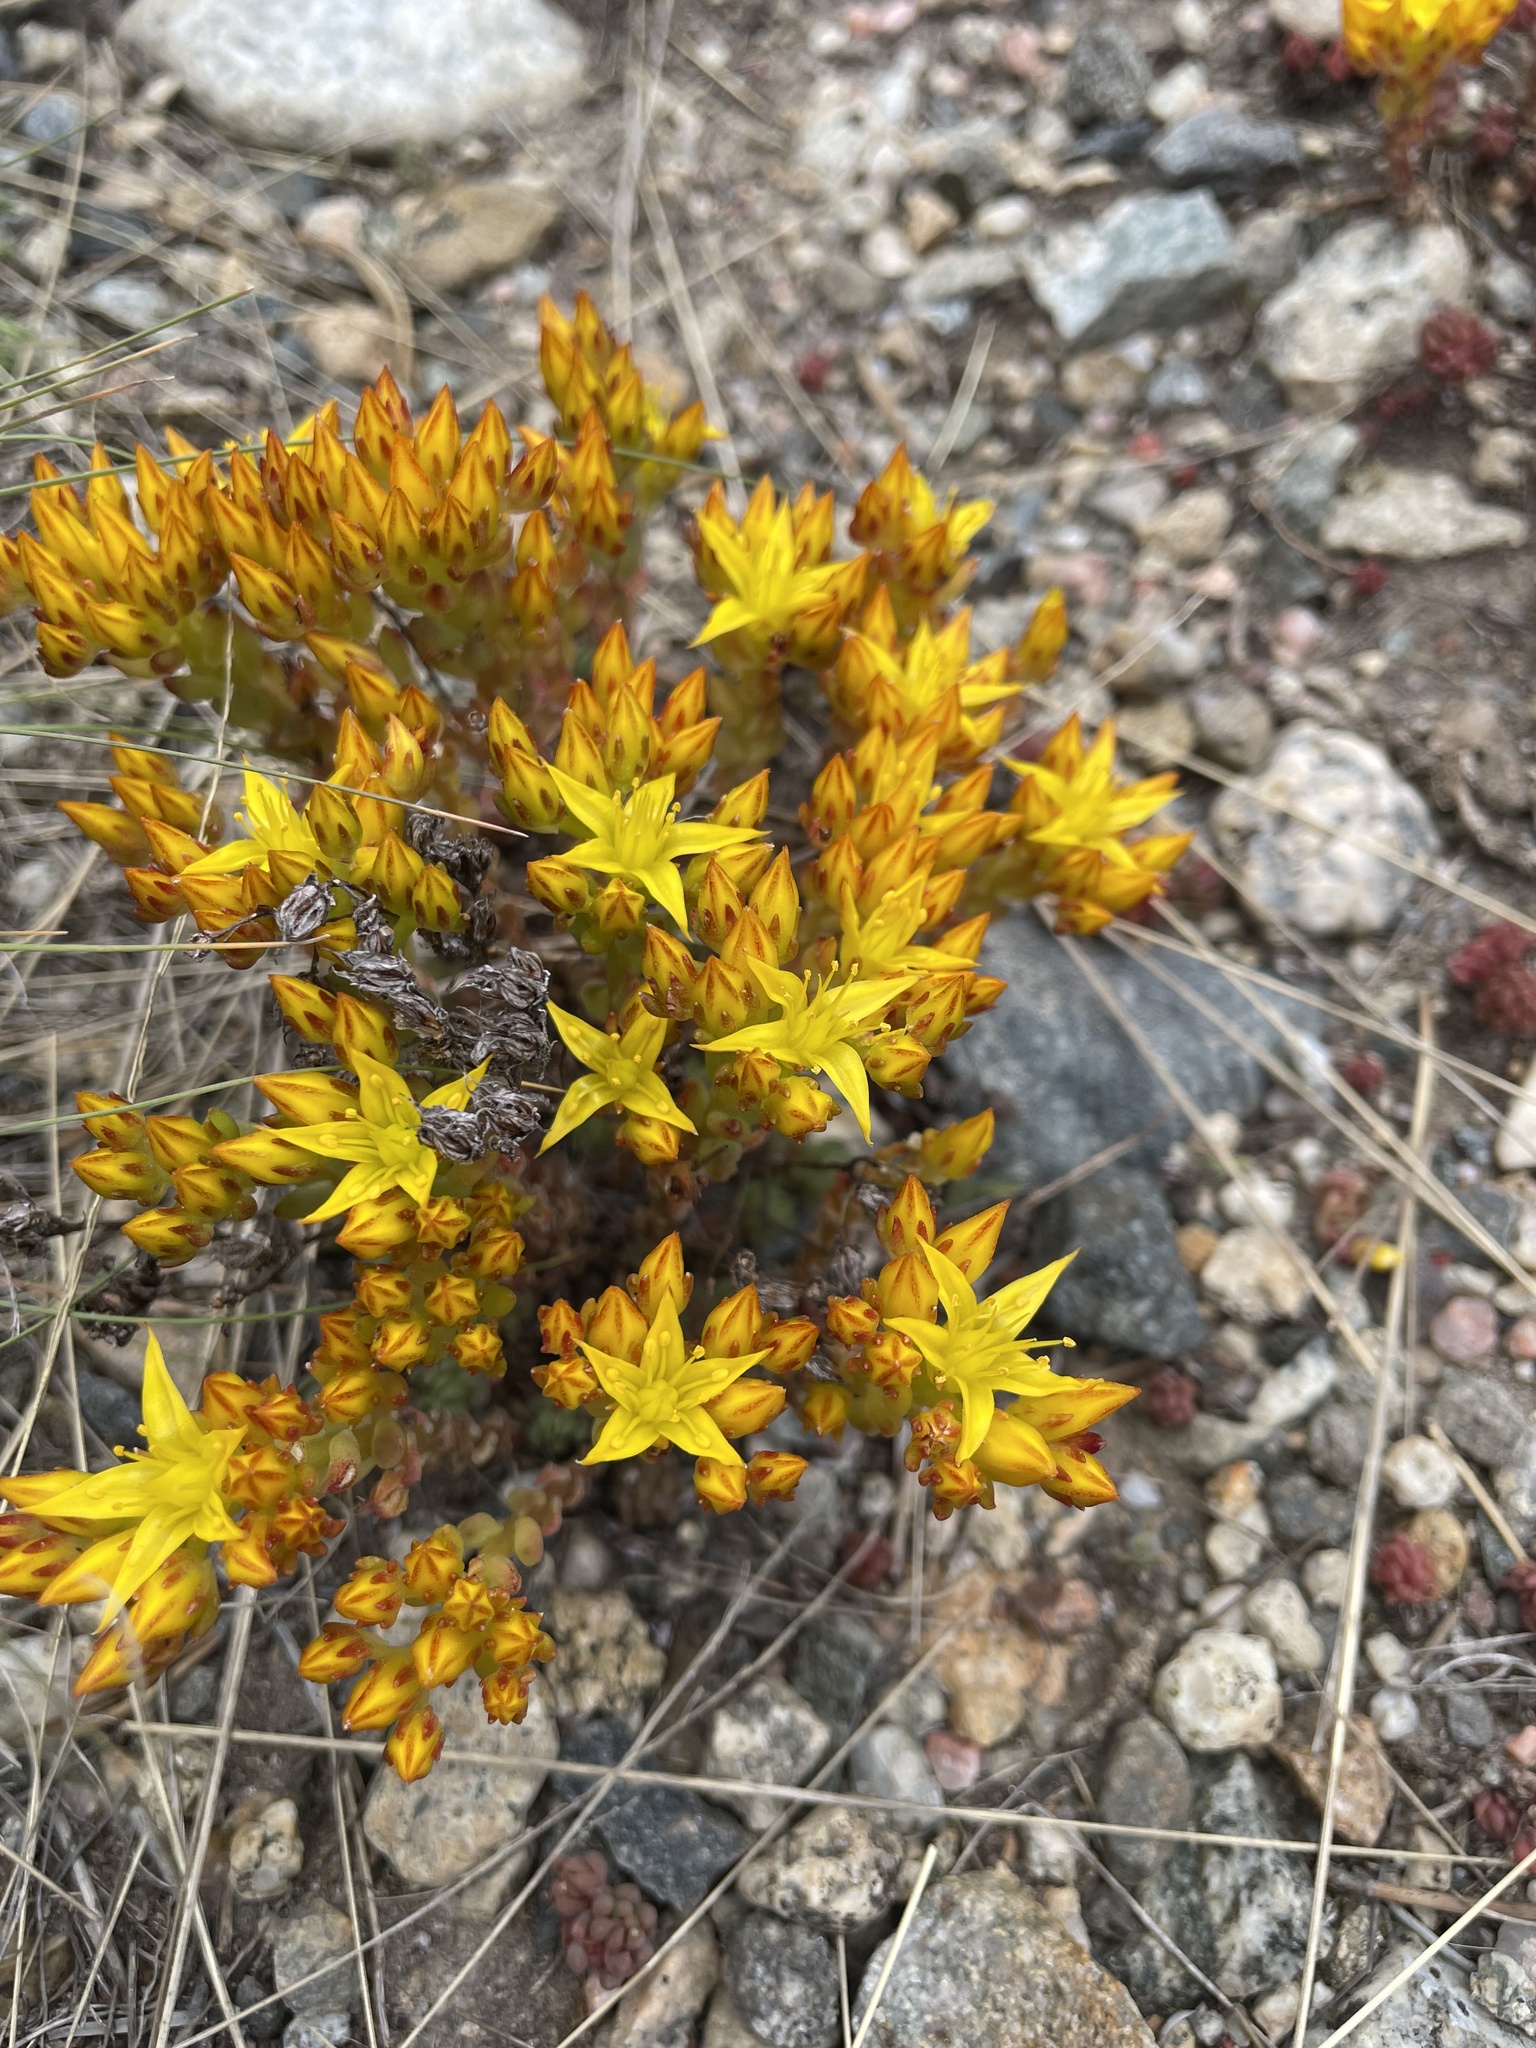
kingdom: Plantae
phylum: Tracheophyta
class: Magnoliopsida
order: Saxifragales
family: Crassulaceae
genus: Sedum
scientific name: Sedum lanceolatum
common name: Common stonecrop
